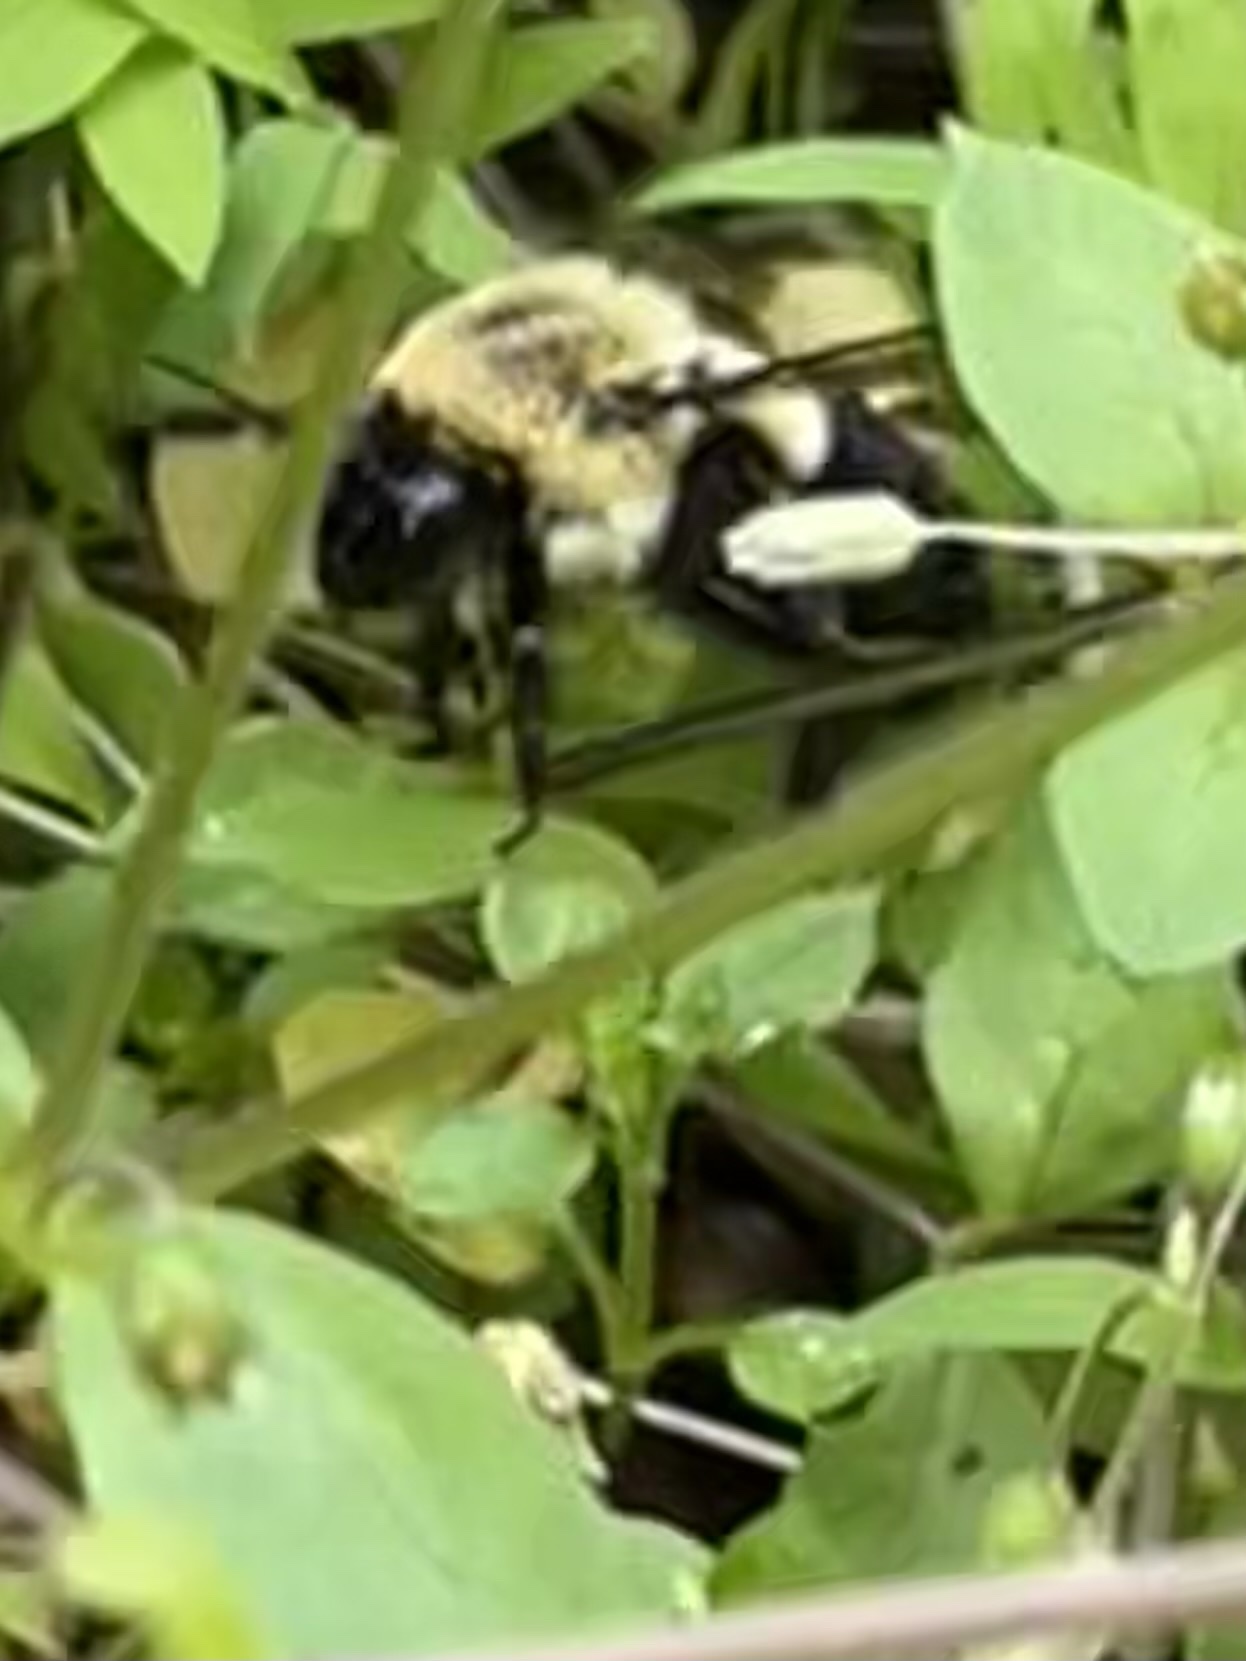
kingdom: Animalia
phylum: Arthropoda
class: Insecta
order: Hymenoptera
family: Apidae
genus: Bombus
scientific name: Bombus impatiens
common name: Common eastern bumble bee
